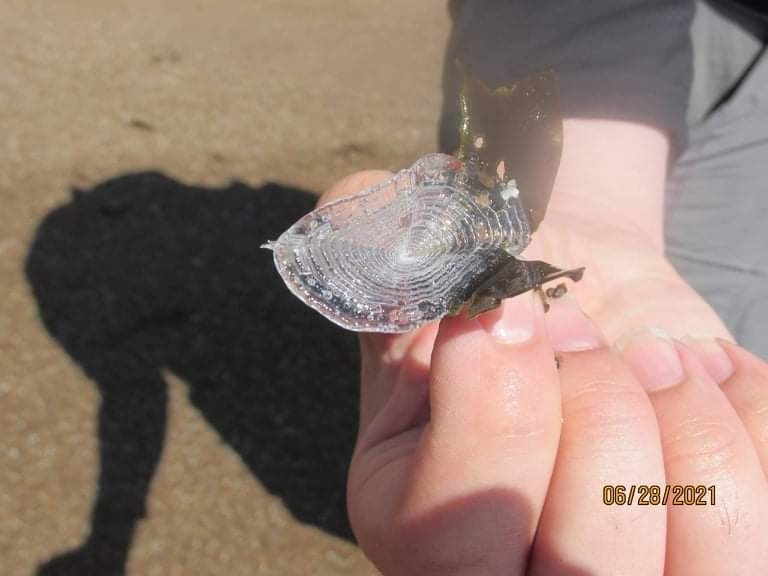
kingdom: Animalia
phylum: Cnidaria
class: Hydrozoa
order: Anthoathecata
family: Porpitidae
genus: Velella
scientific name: Velella velella
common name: By-the-wind-sailor
